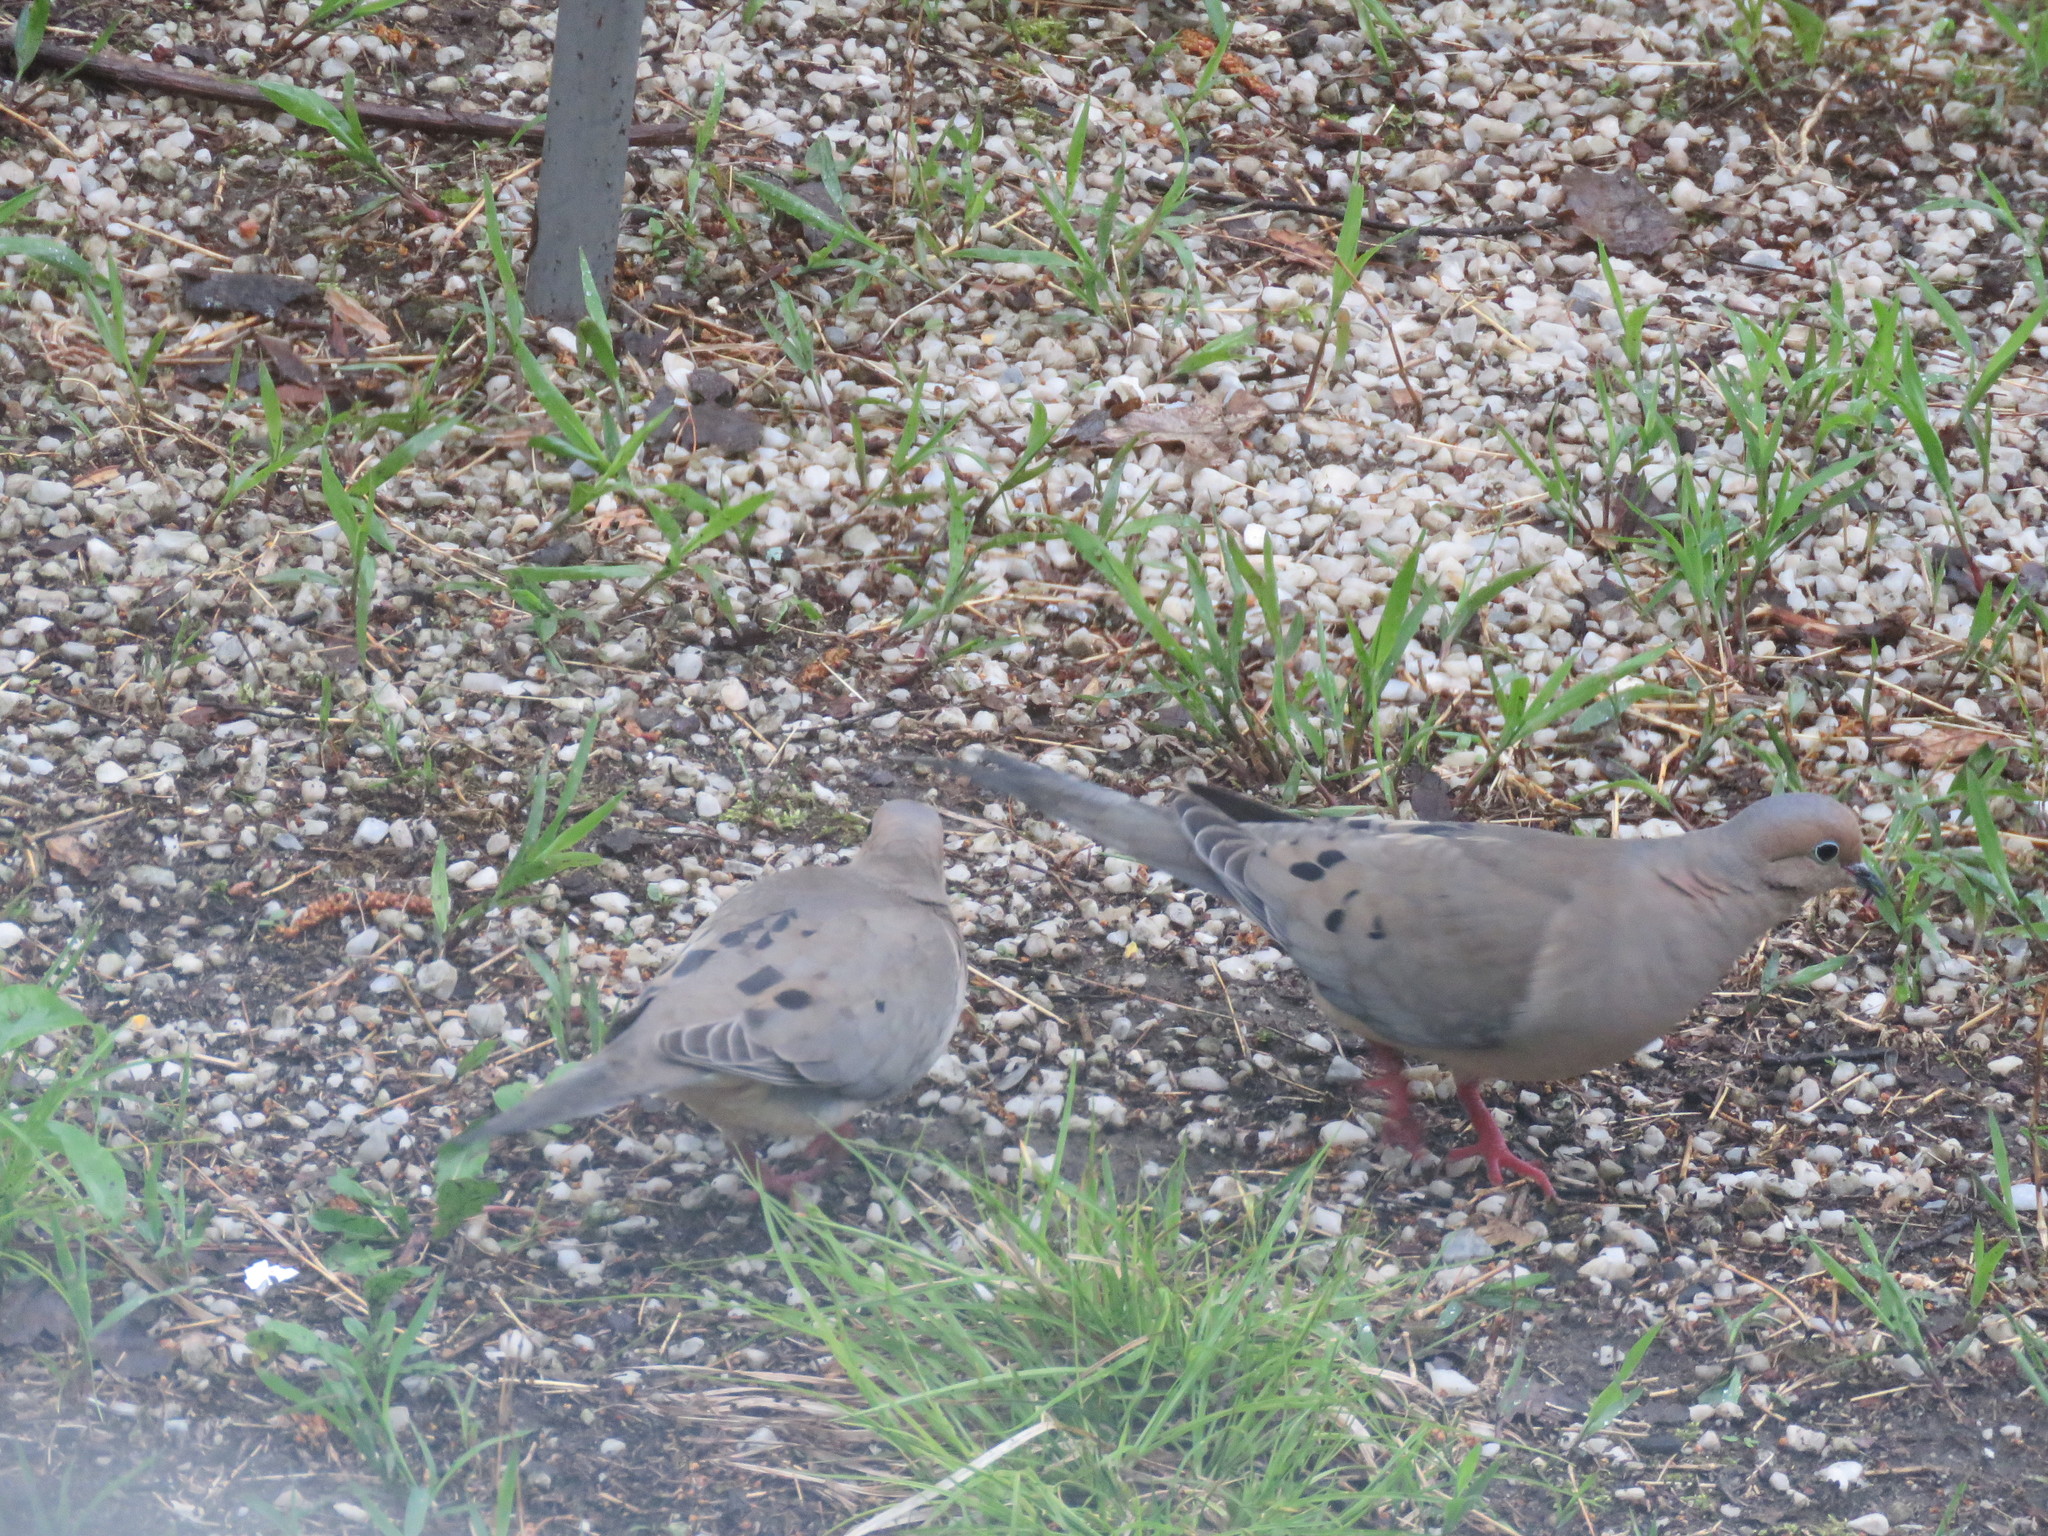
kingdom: Animalia
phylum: Chordata
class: Aves
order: Columbiformes
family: Columbidae
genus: Zenaida
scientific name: Zenaida macroura
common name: Mourning dove
